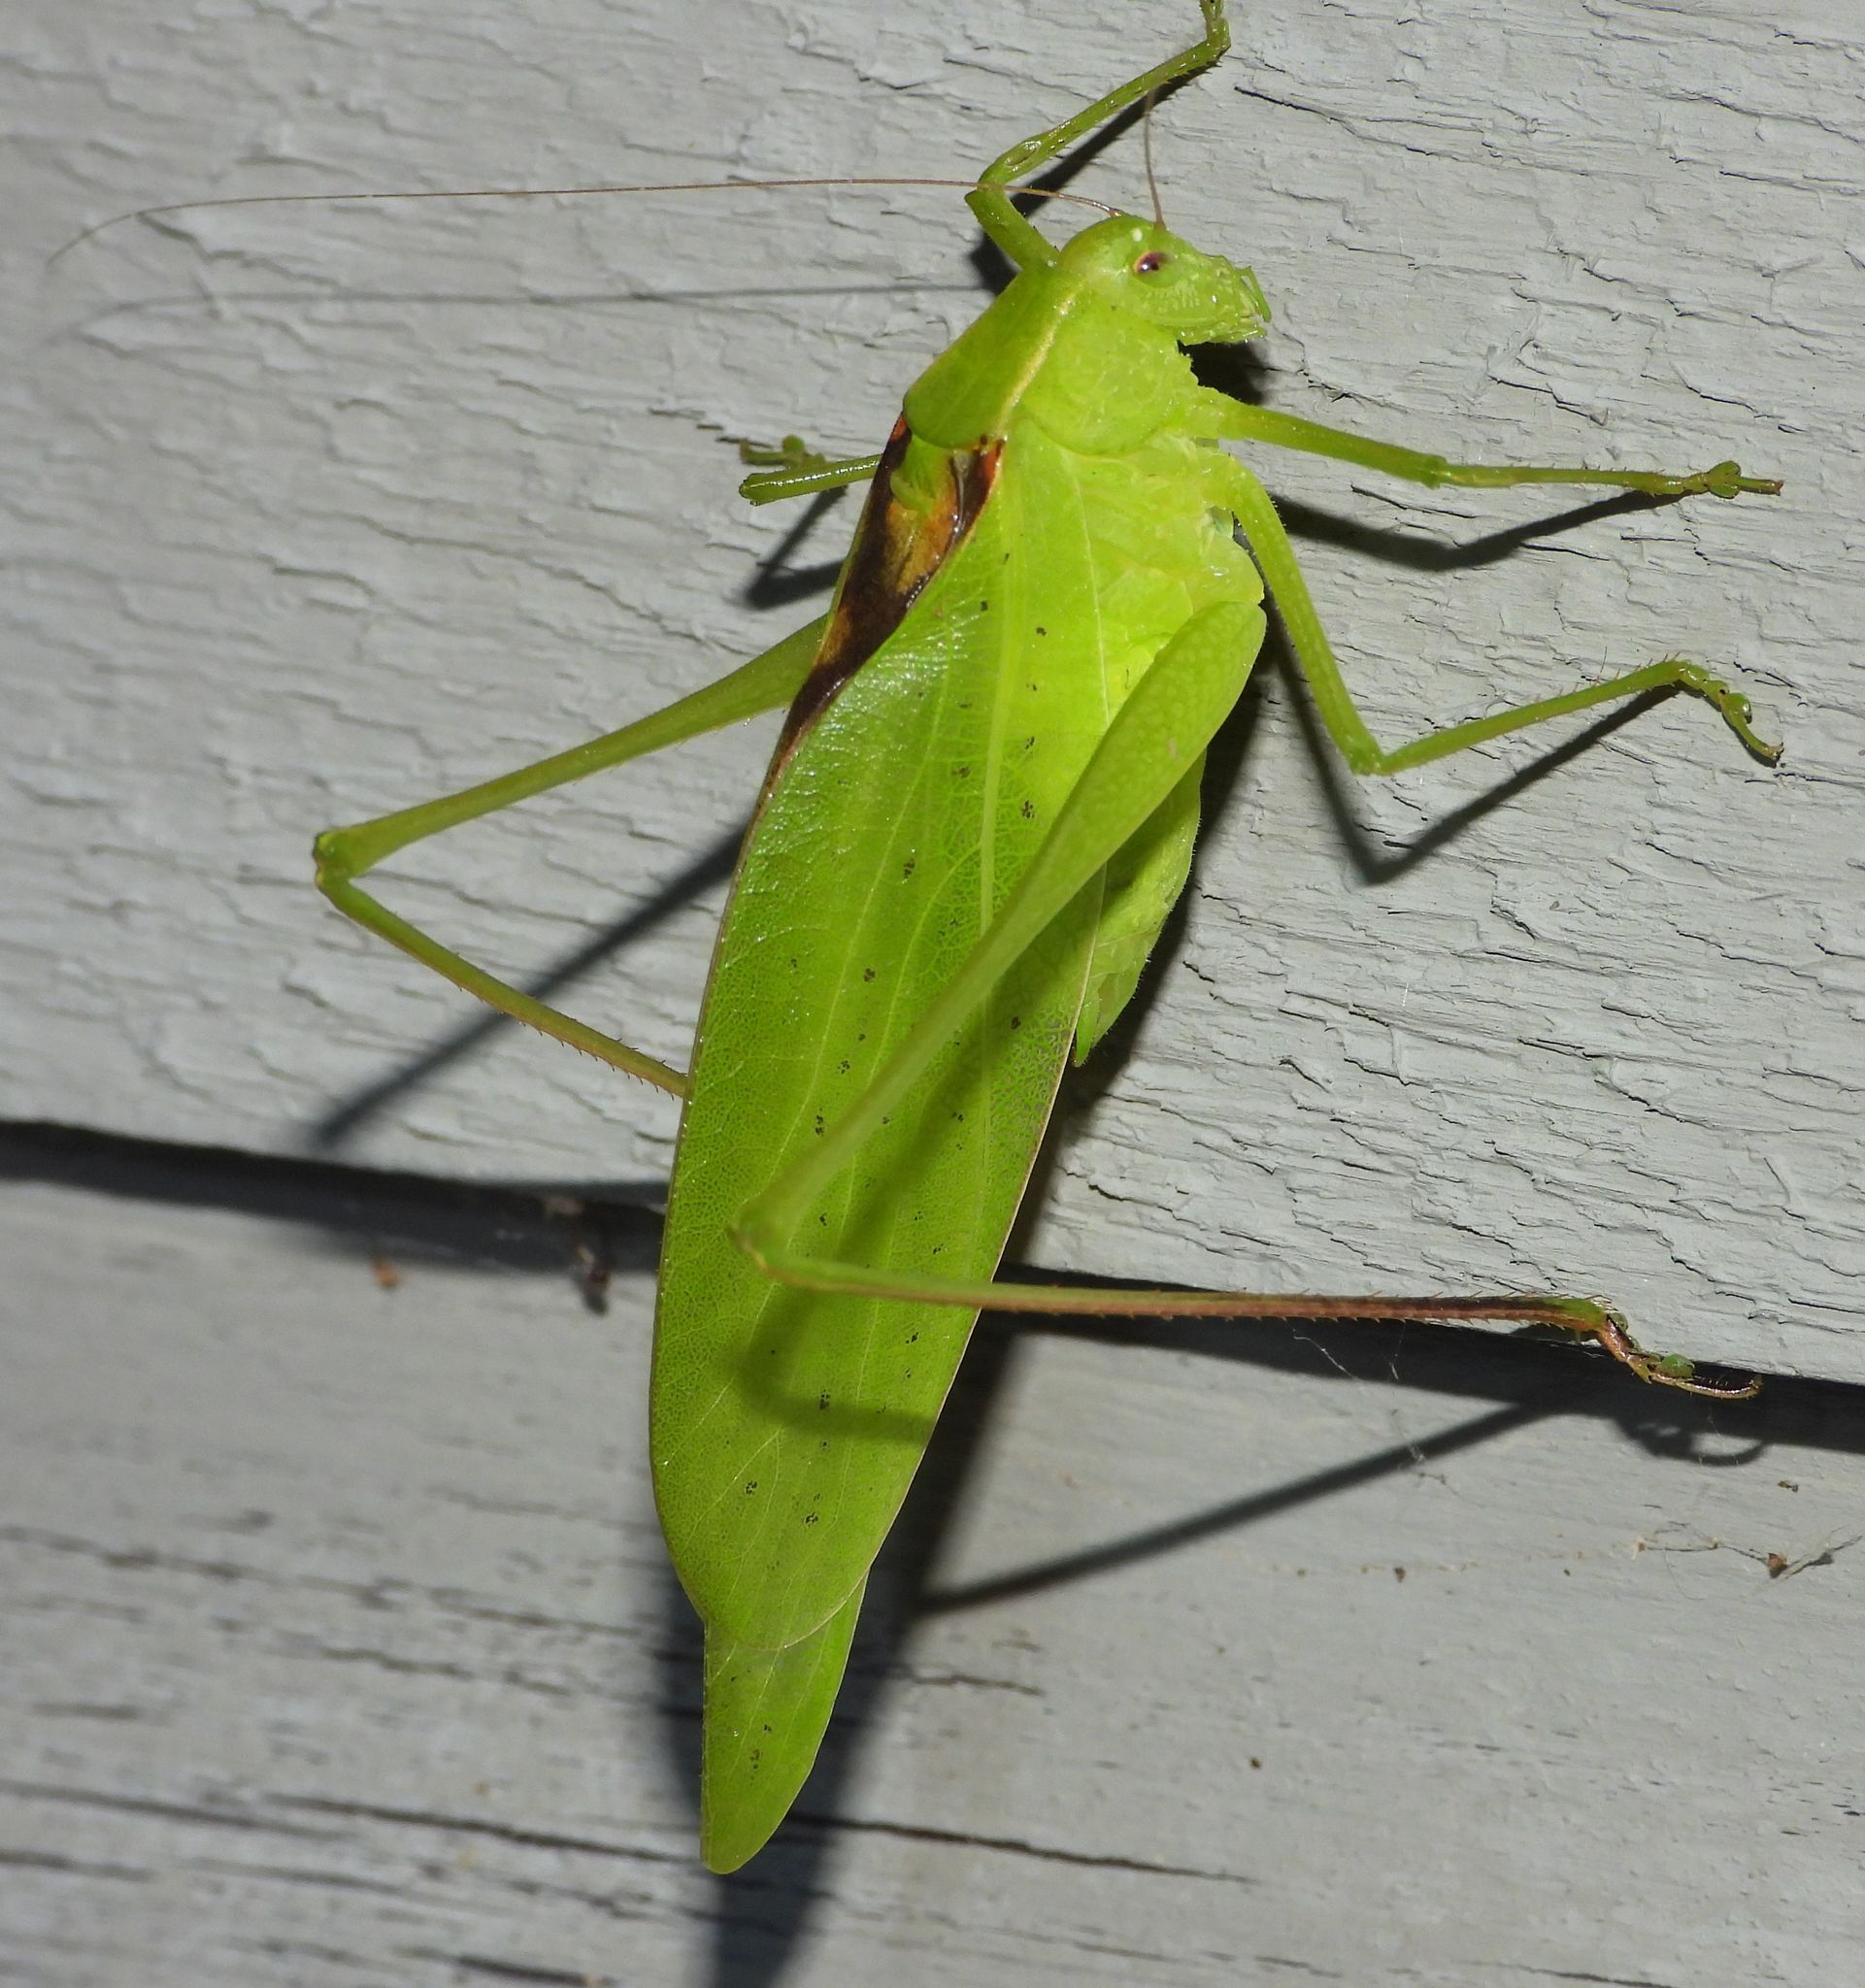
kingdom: Animalia
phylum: Arthropoda
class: Insecta
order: Orthoptera
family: Tettigoniidae
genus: Amblycorypha
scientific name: Amblycorypha oblongifolia
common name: Oblong-winged katydid
